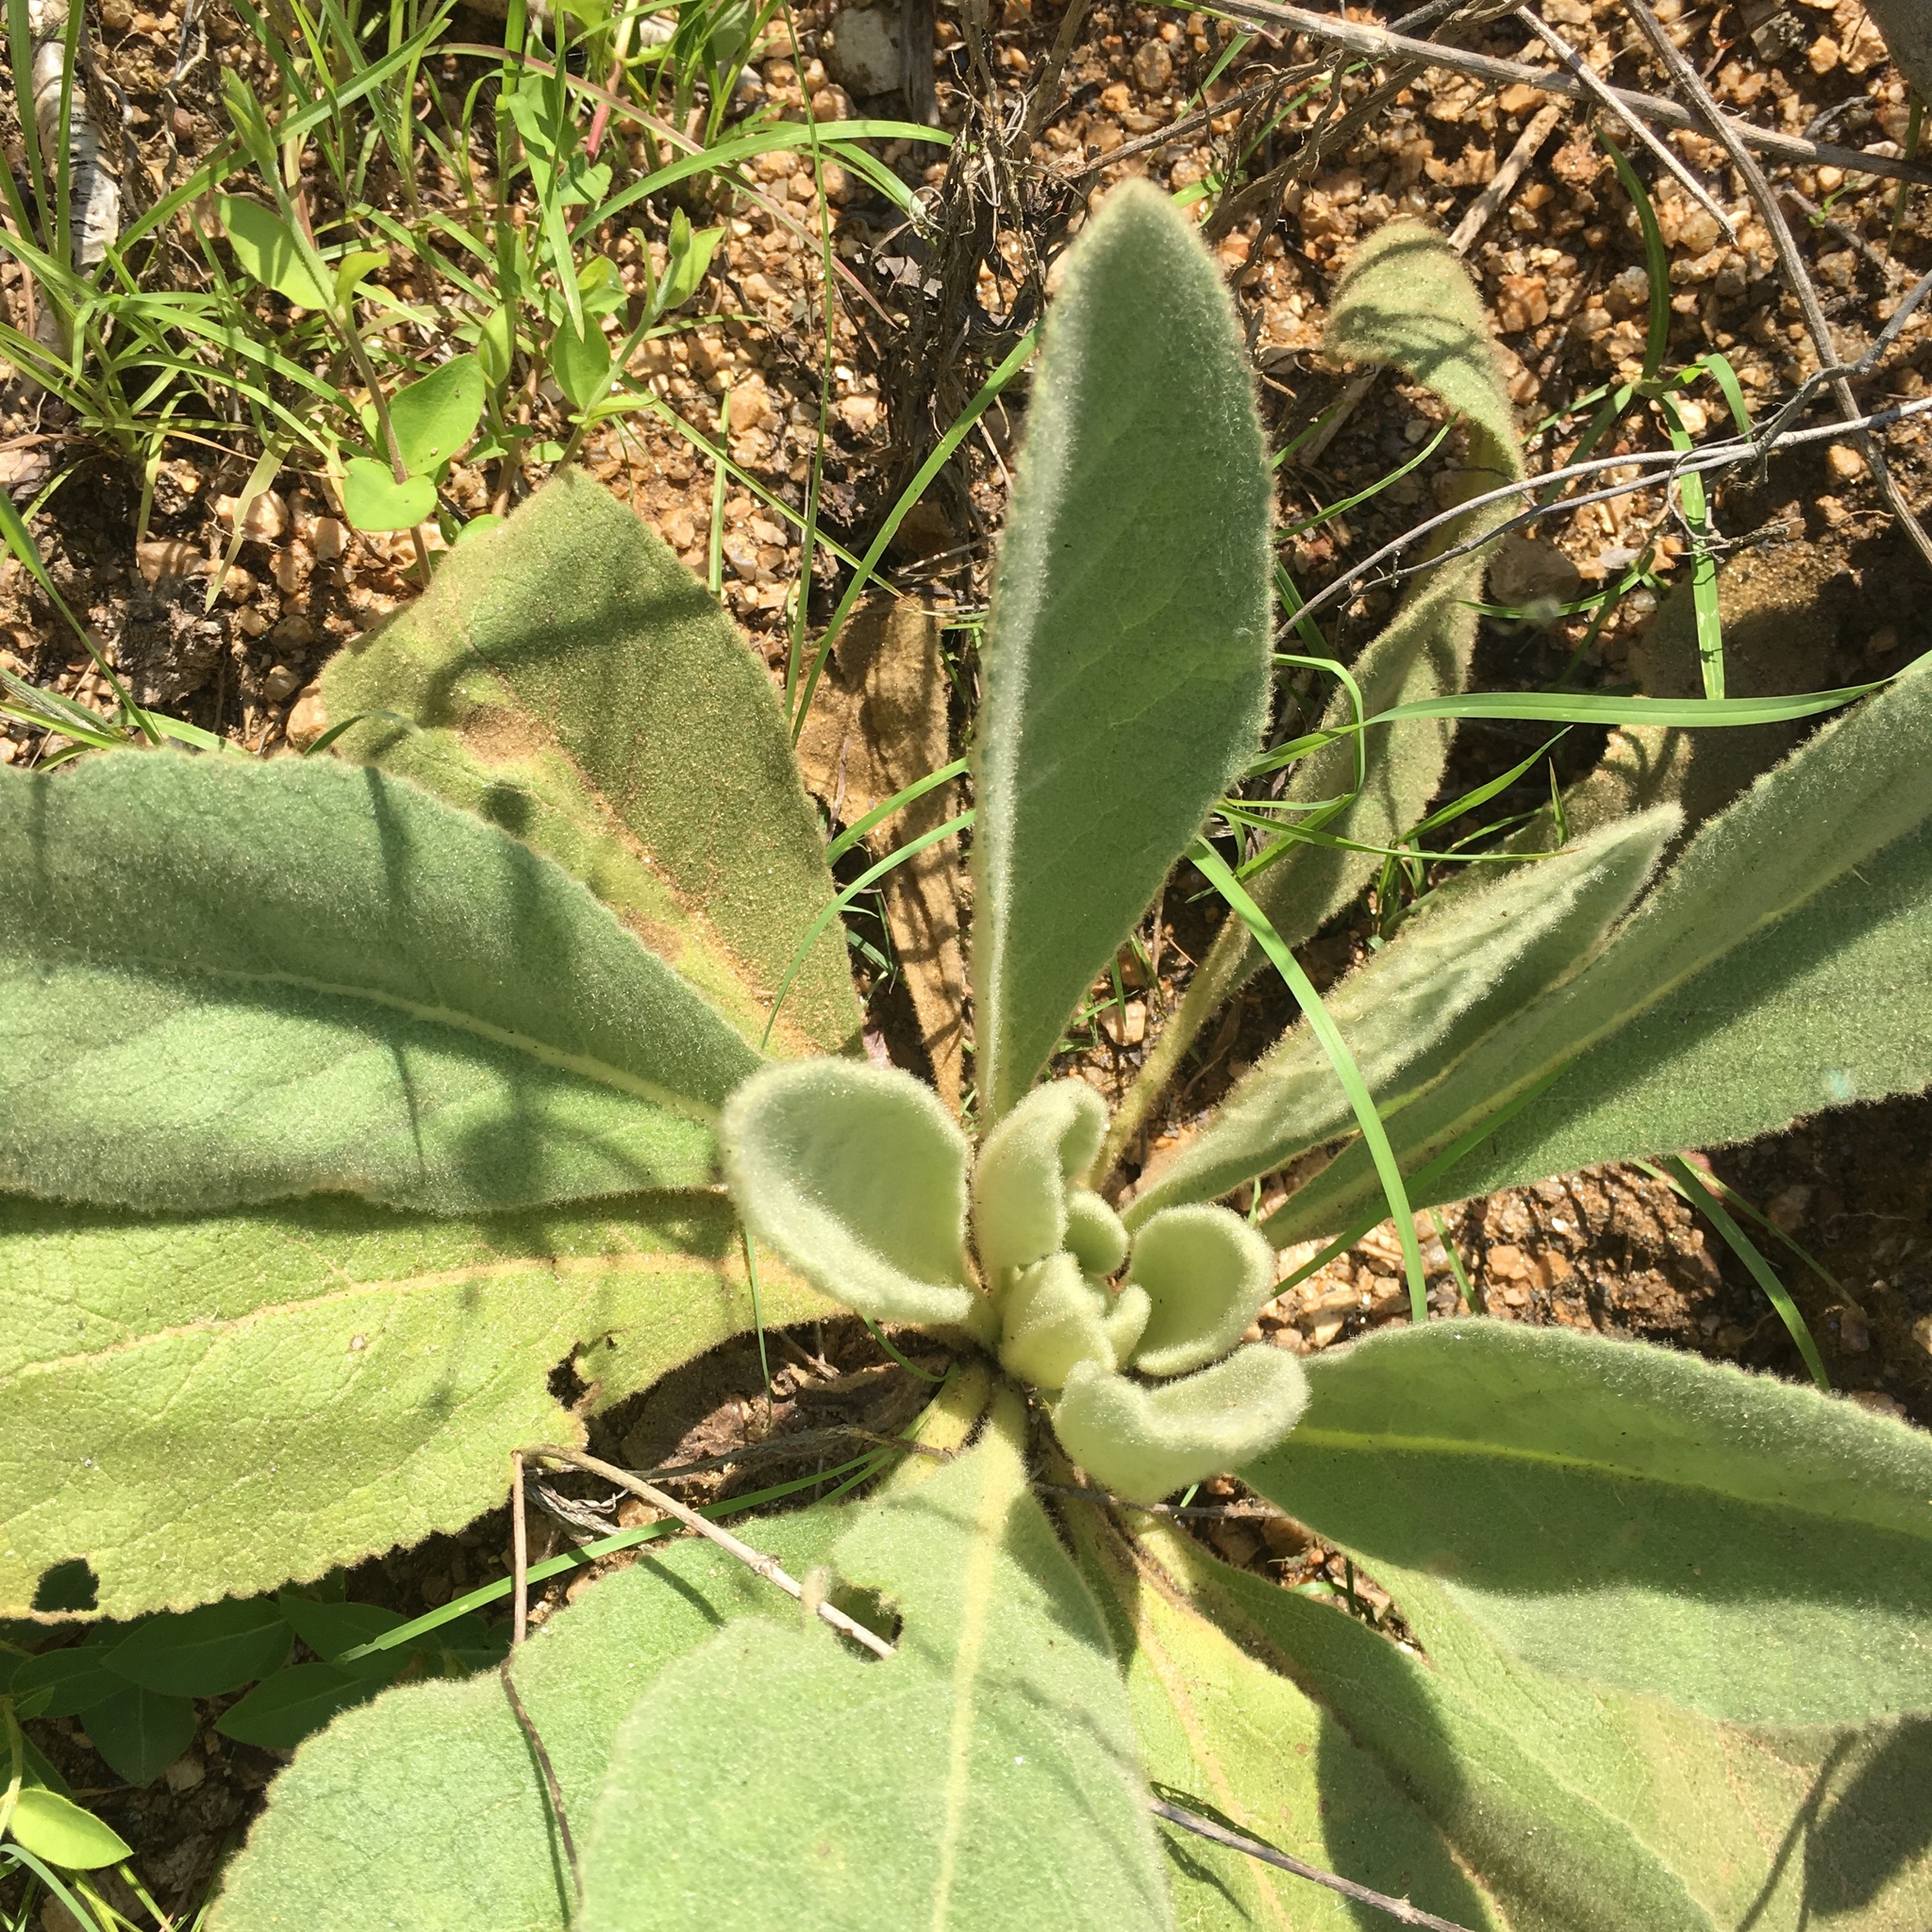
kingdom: Plantae
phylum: Tracheophyta
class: Magnoliopsida
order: Lamiales
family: Scrophulariaceae
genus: Verbascum
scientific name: Verbascum thapsus
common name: Common mullein
